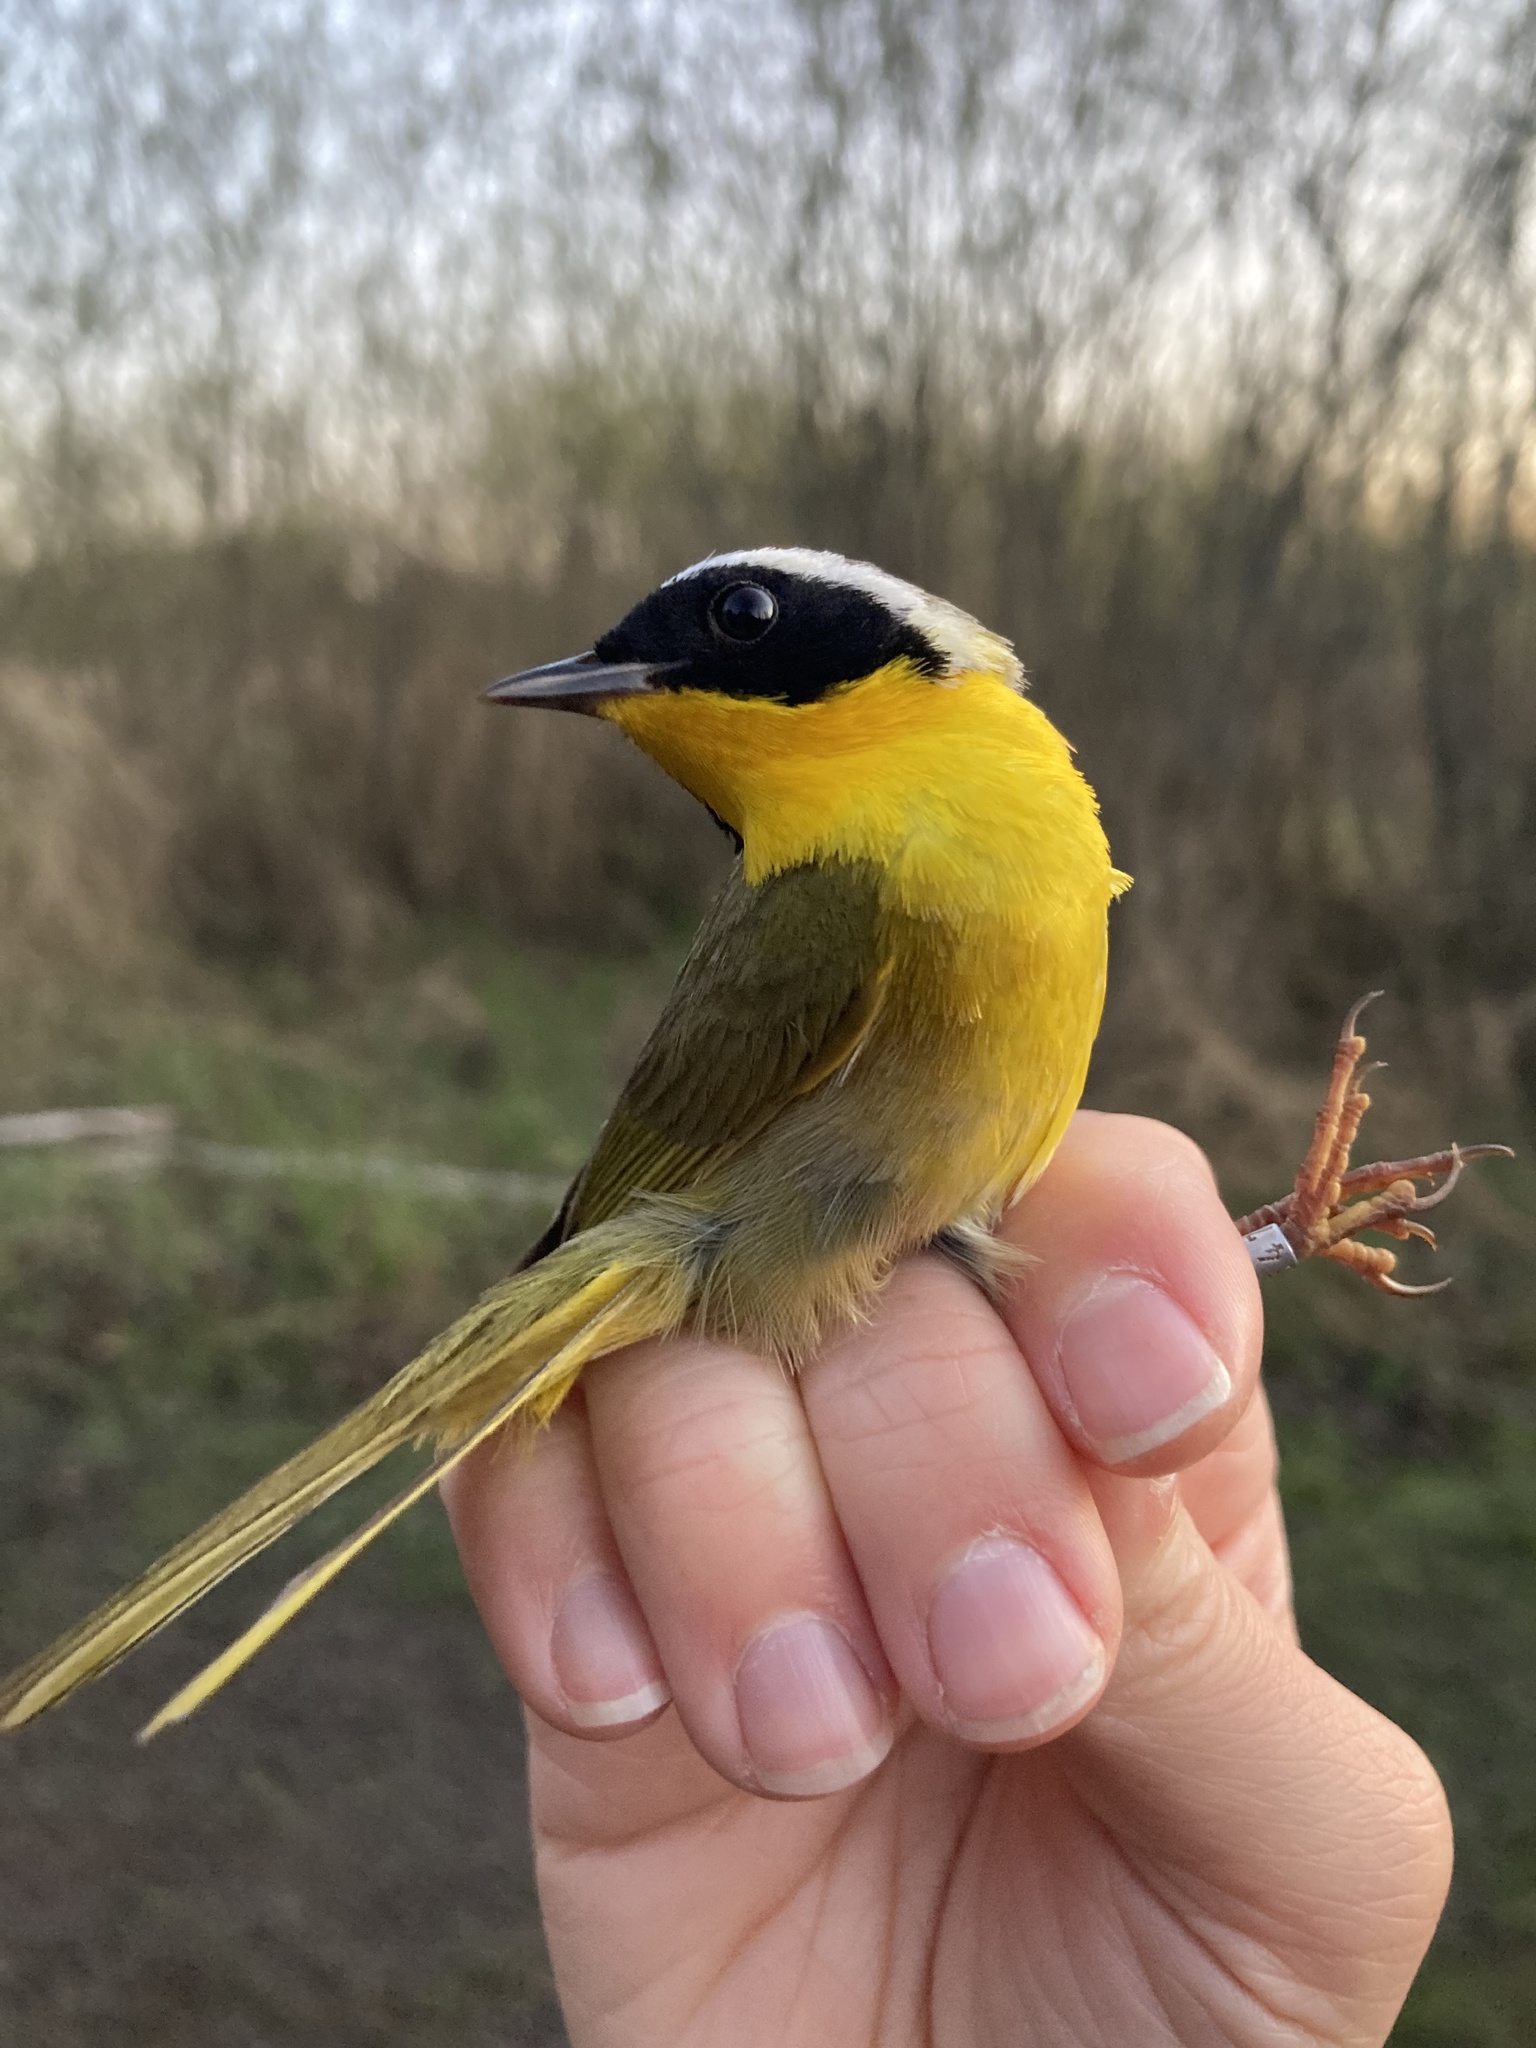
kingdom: Animalia
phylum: Chordata
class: Aves
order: Passeriformes
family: Parulidae
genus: Geothlypis
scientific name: Geothlypis trichas
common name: Common yellowthroat
